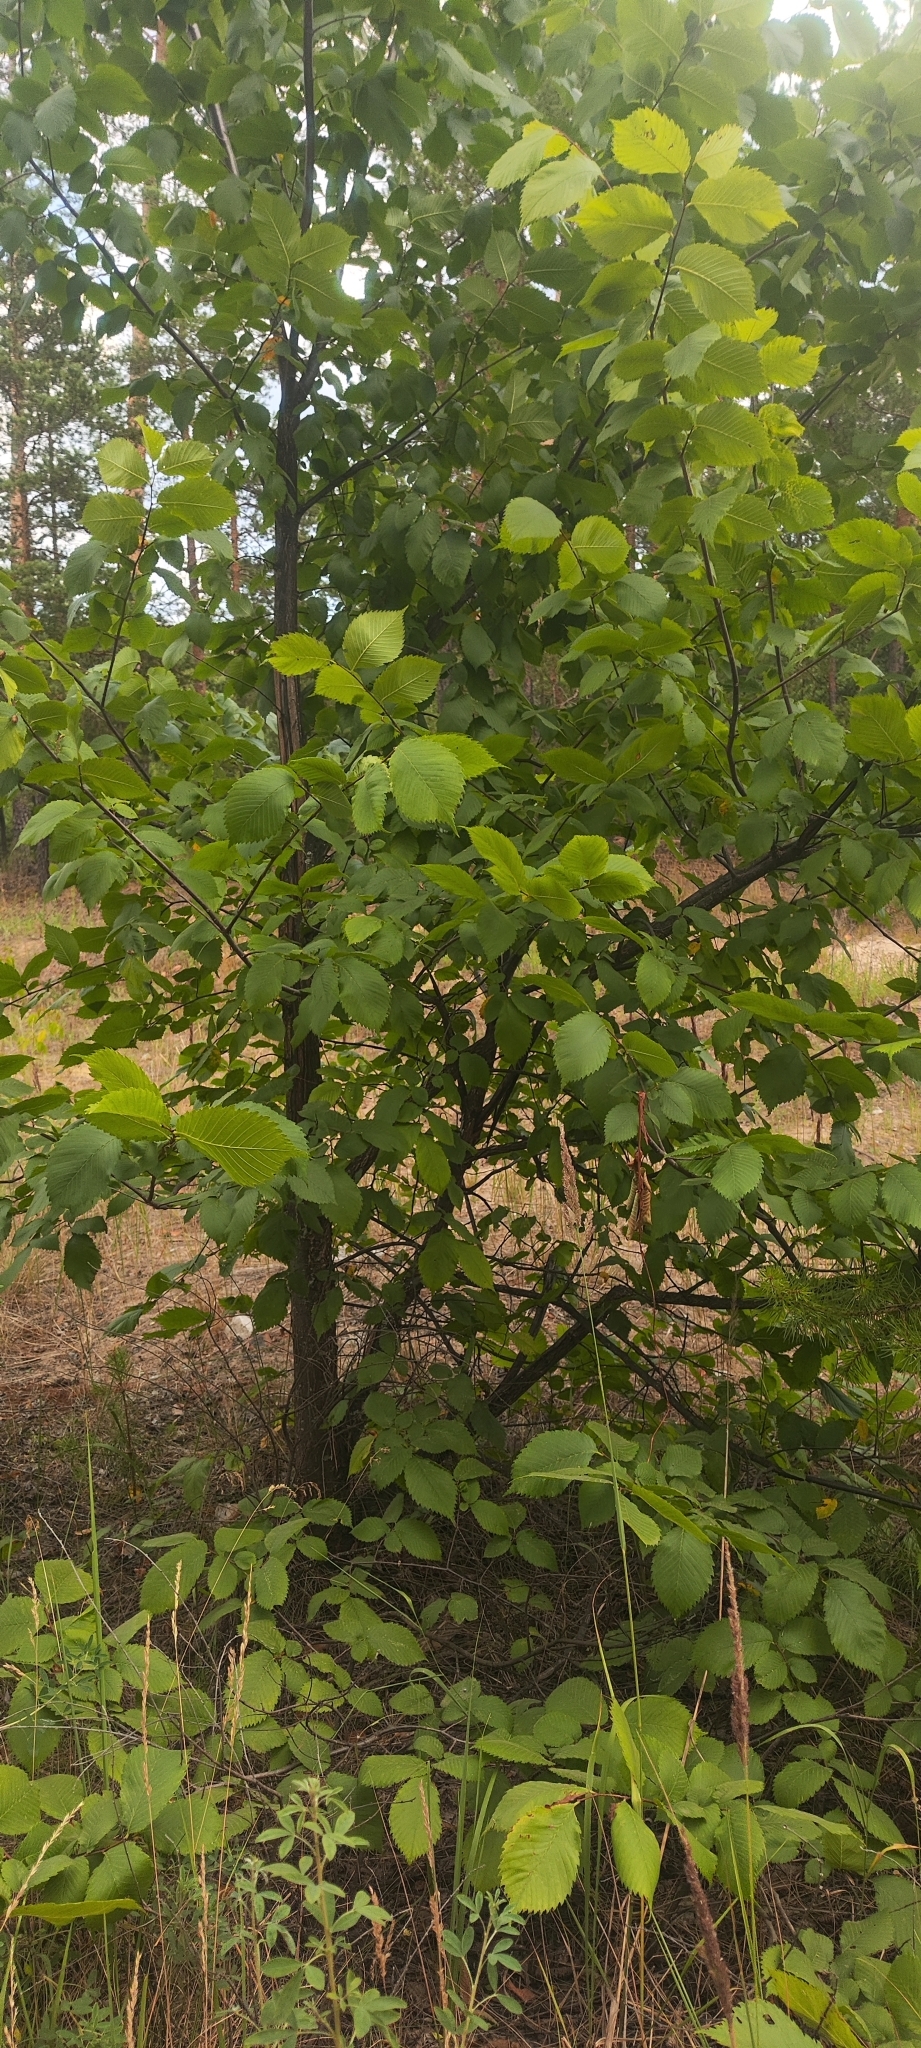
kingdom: Plantae
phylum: Tracheophyta
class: Magnoliopsida
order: Rosales
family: Ulmaceae
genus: Ulmus
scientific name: Ulmus laevis
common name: European white-elm
